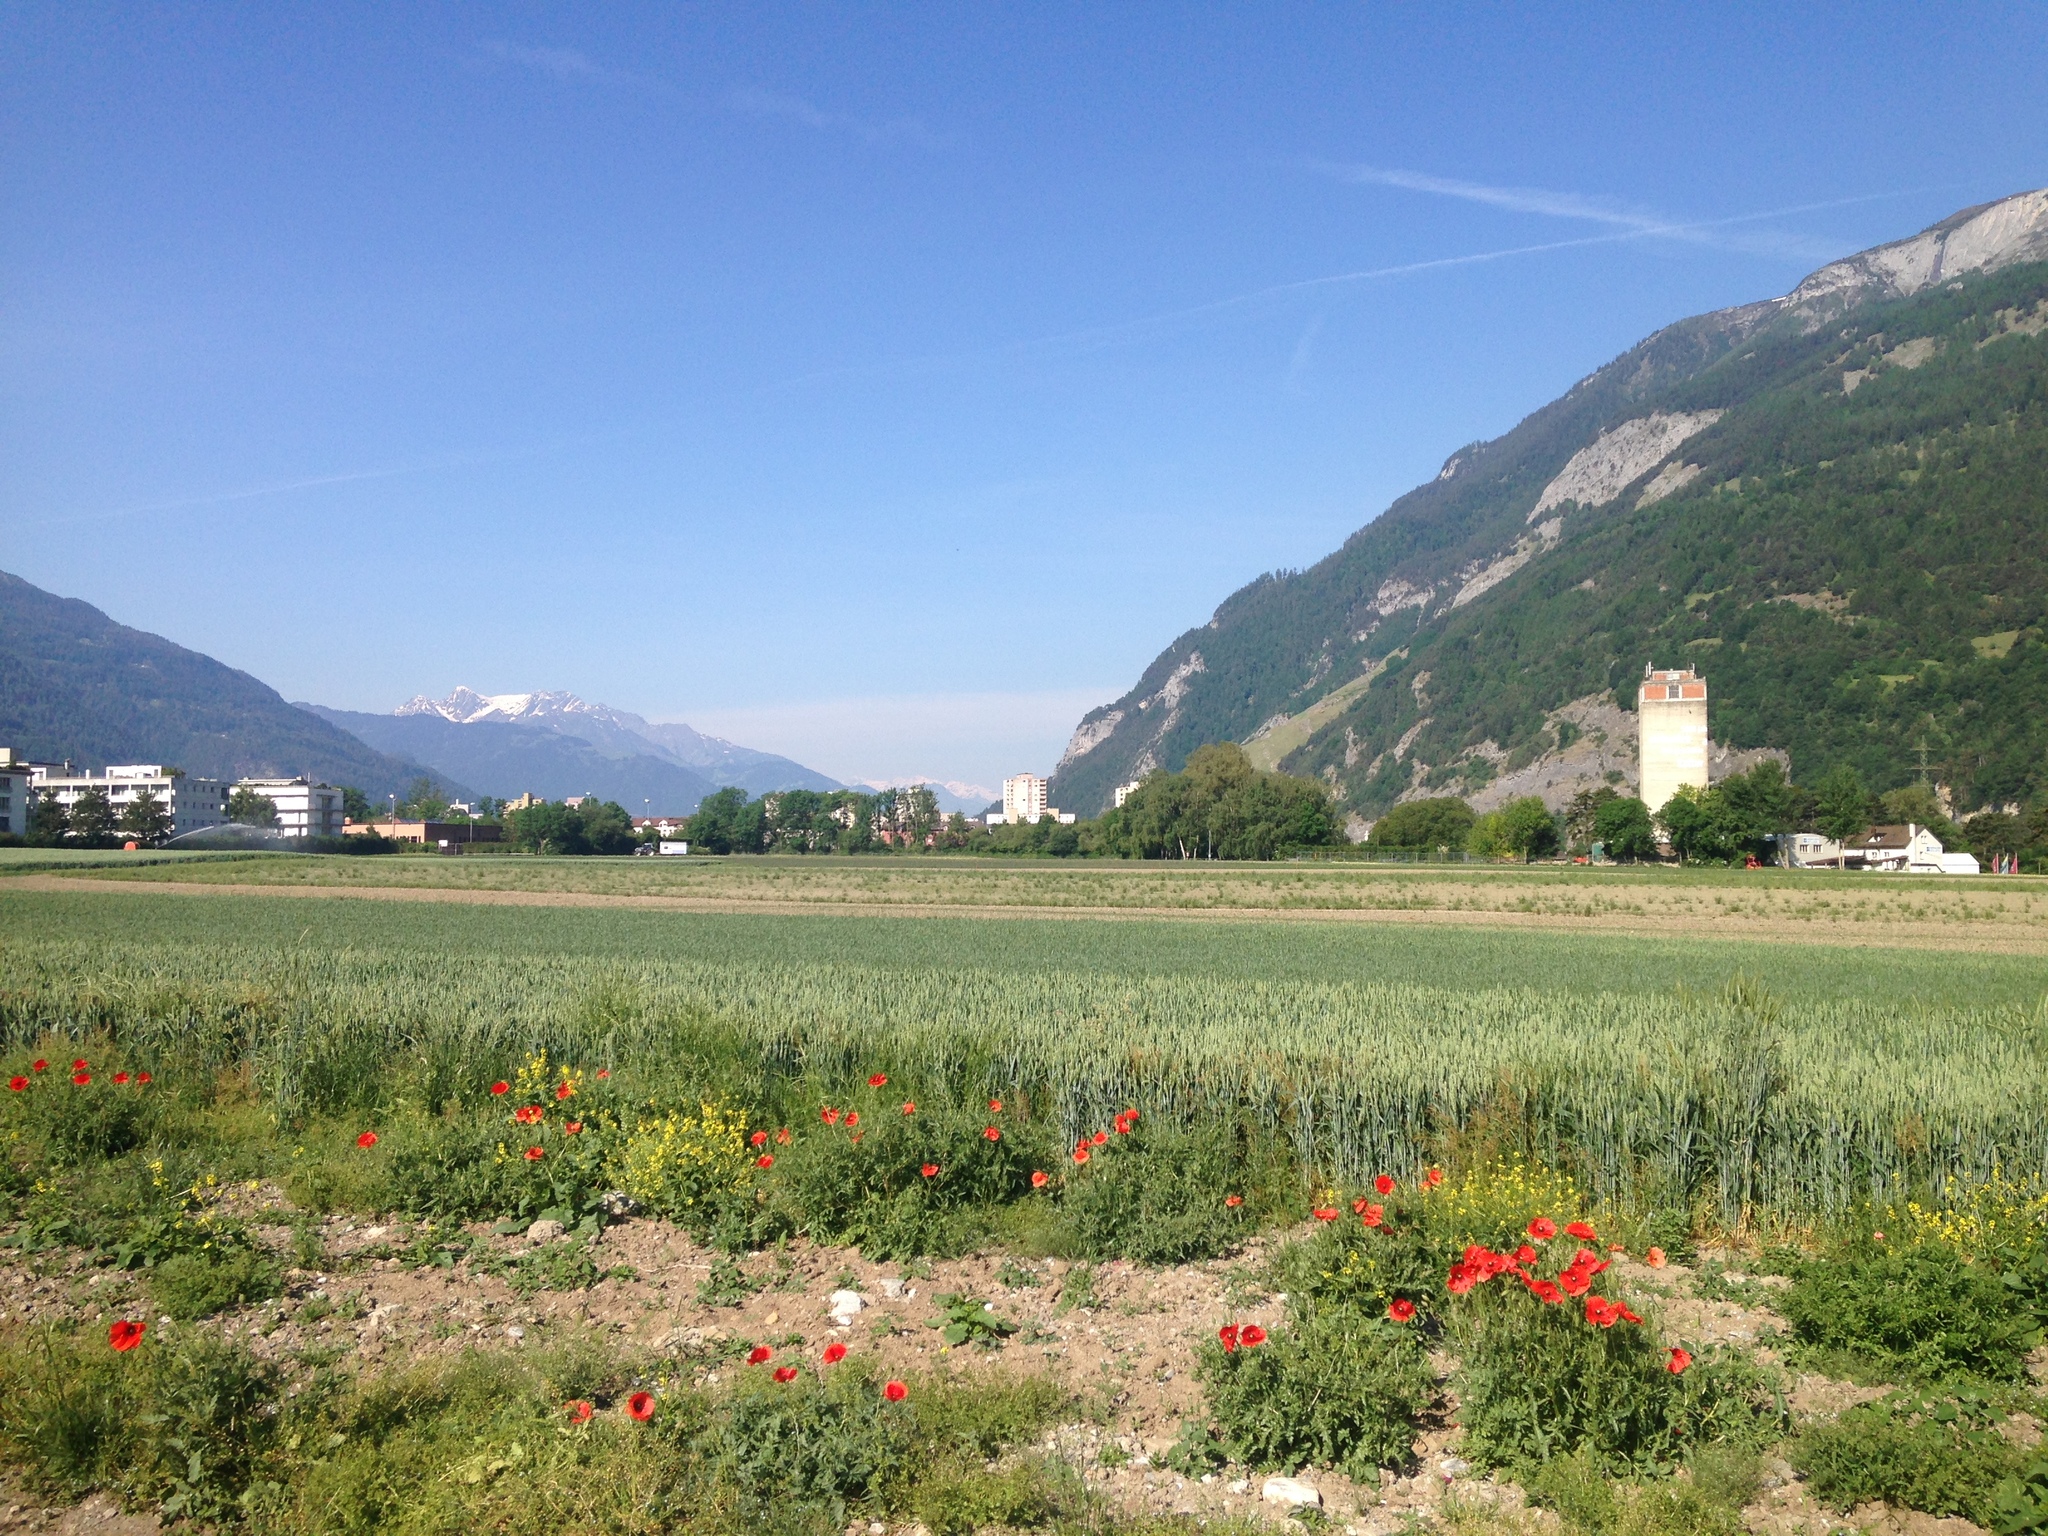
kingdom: Plantae
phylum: Tracheophyta
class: Magnoliopsida
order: Ranunculales
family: Papaveraceae
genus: Papaver
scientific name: Papaver rhoeas
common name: Corn poppy
